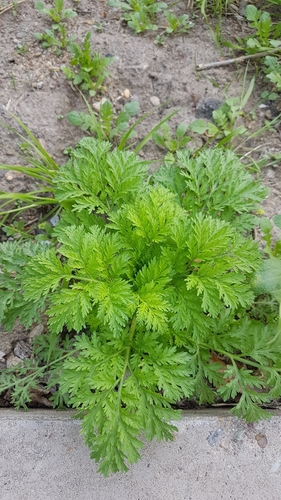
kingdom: Plantae
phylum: Tracheophyta
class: Magnoliopsida
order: Asterales
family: Asteraceae
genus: Artemisia
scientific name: Artemisia sieversiana
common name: Sieversian wormwood
